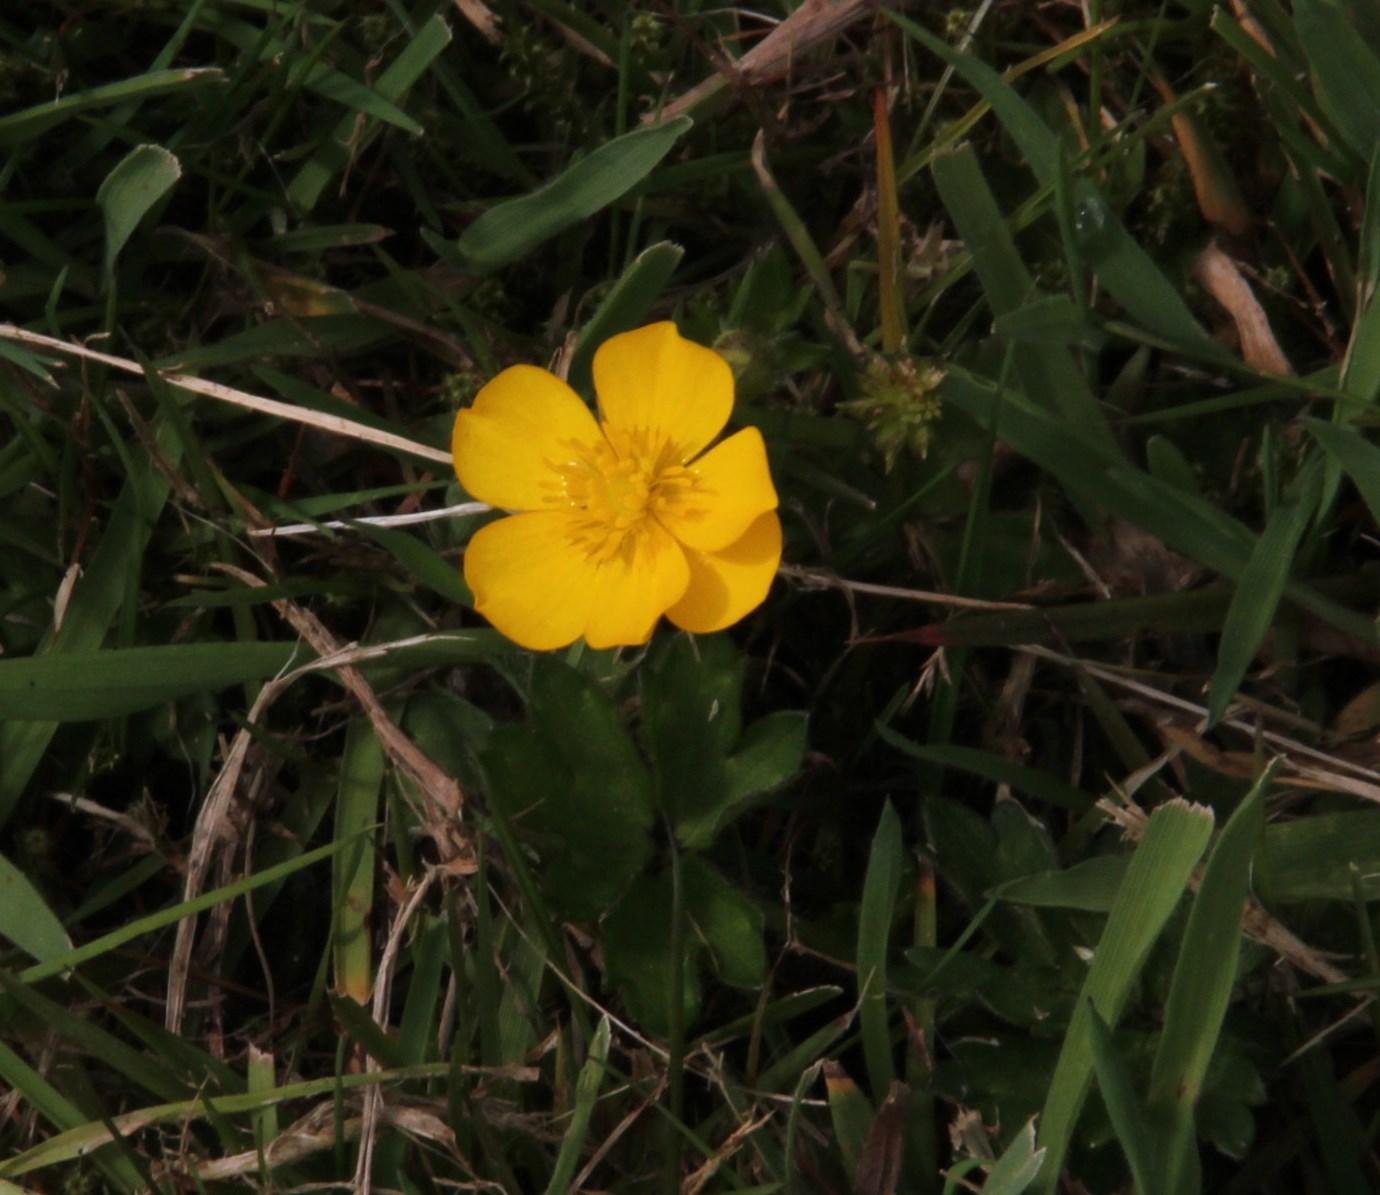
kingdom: Plantae
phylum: Tracheophyta
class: Magnoliopsida
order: Ranunculales
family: Ranunculaceae
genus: Ranunculus
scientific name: Ranunculus
